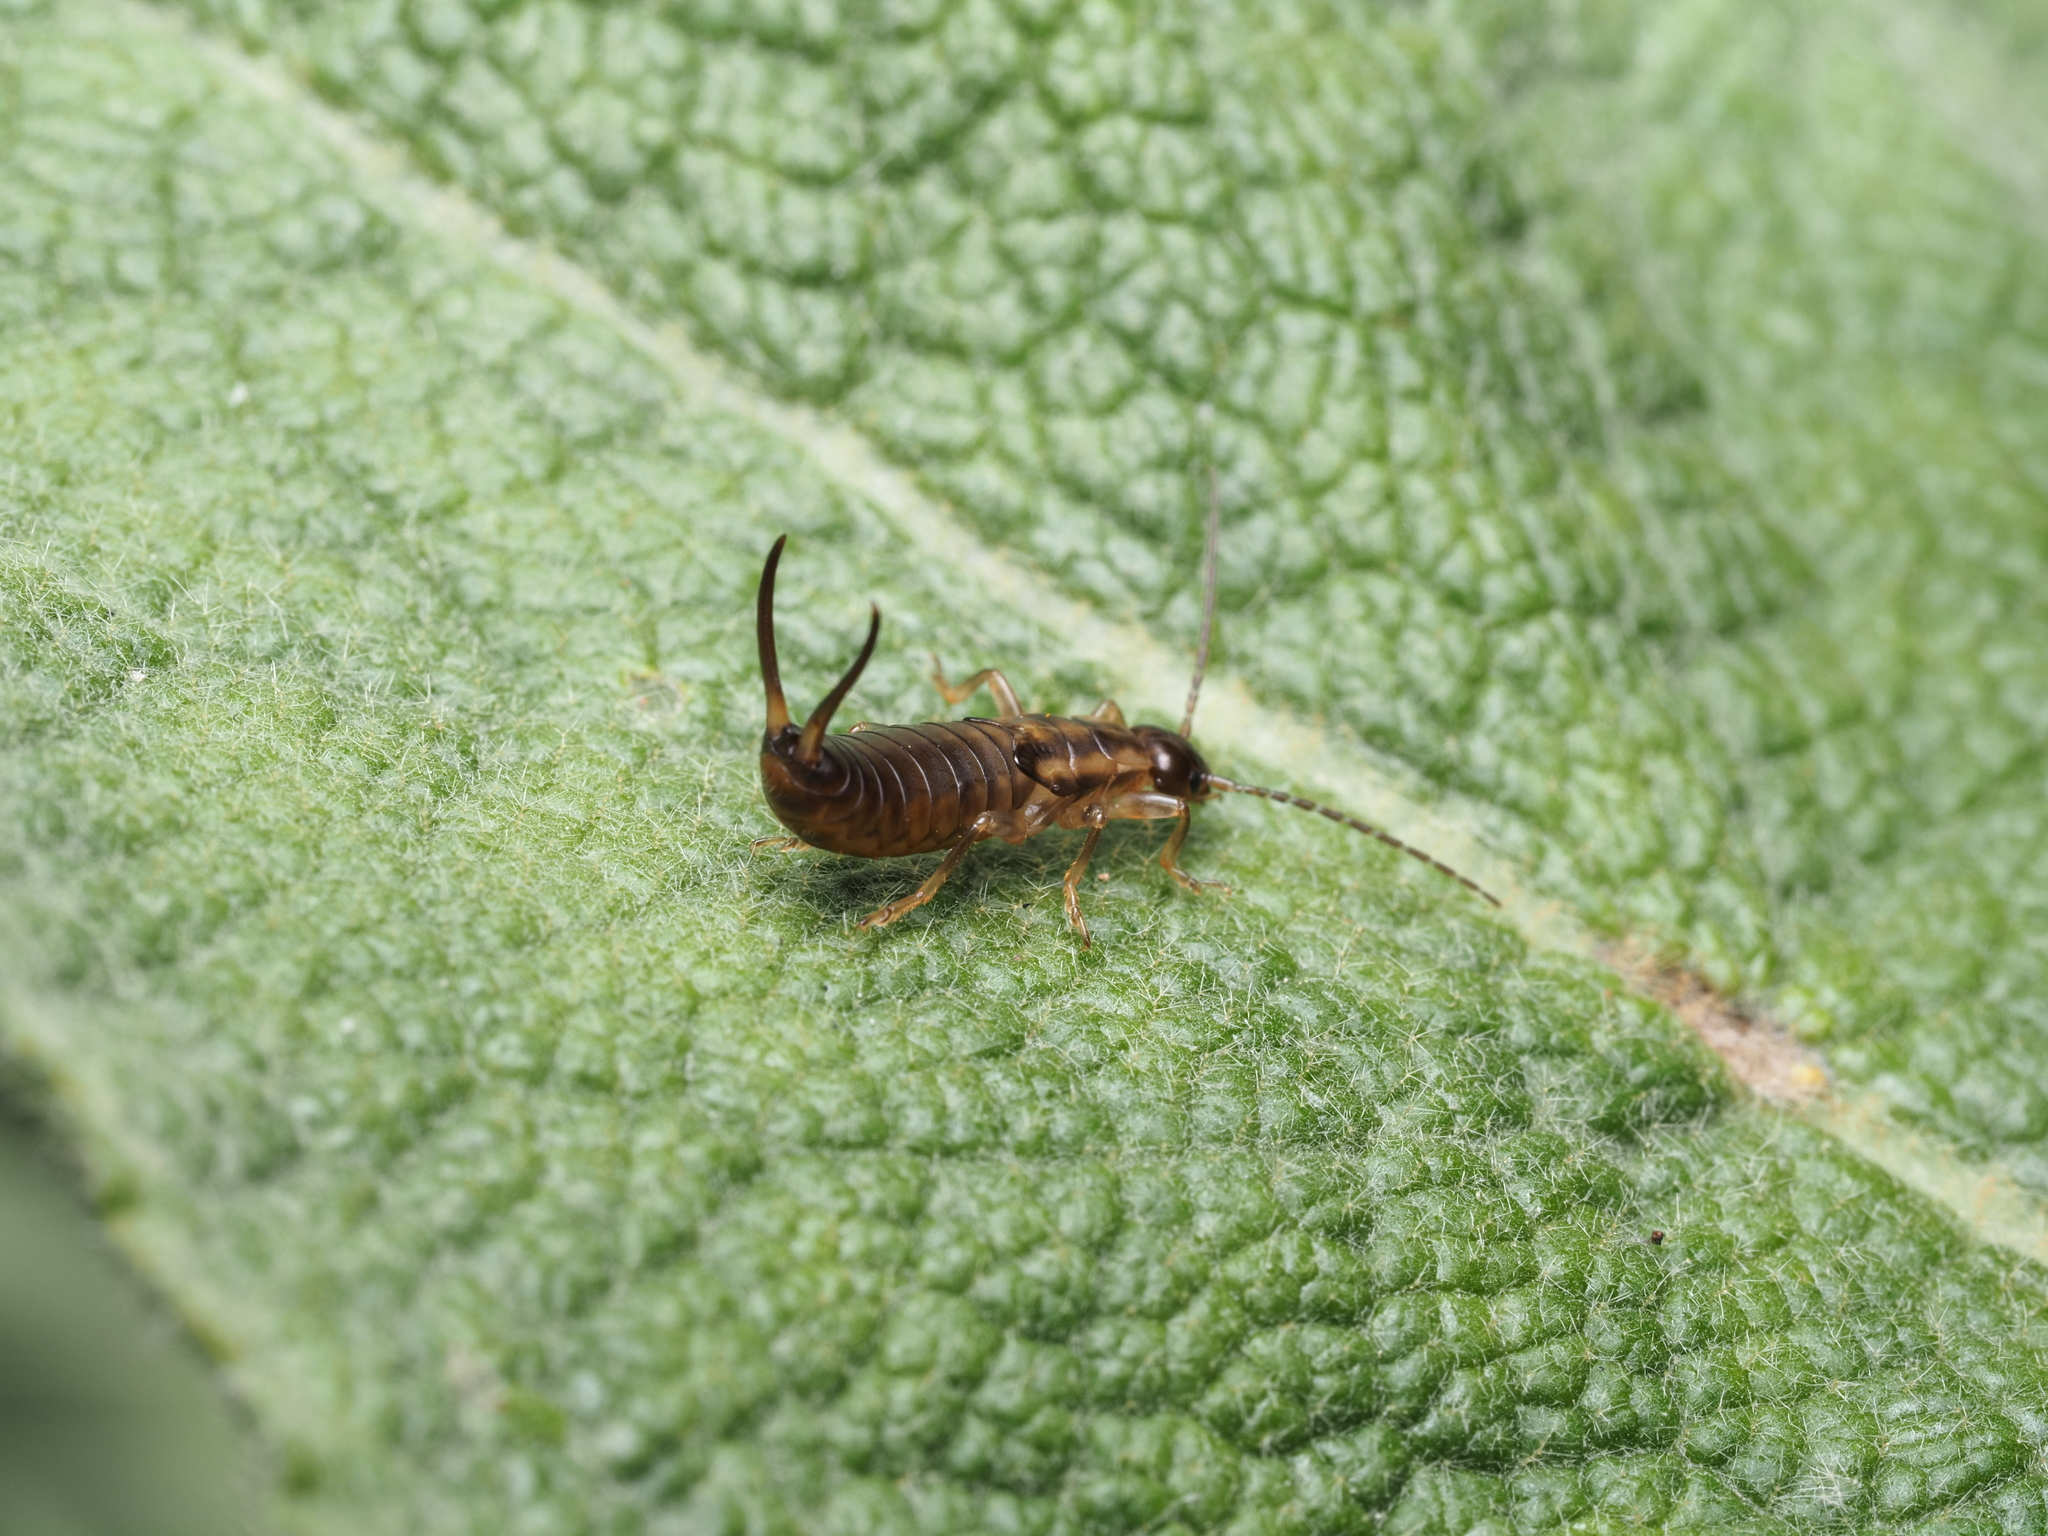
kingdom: Animalia
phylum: Arthropoda
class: Insecta
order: Dermaptera
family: Forficulidae
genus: Forficula
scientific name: Forficula
